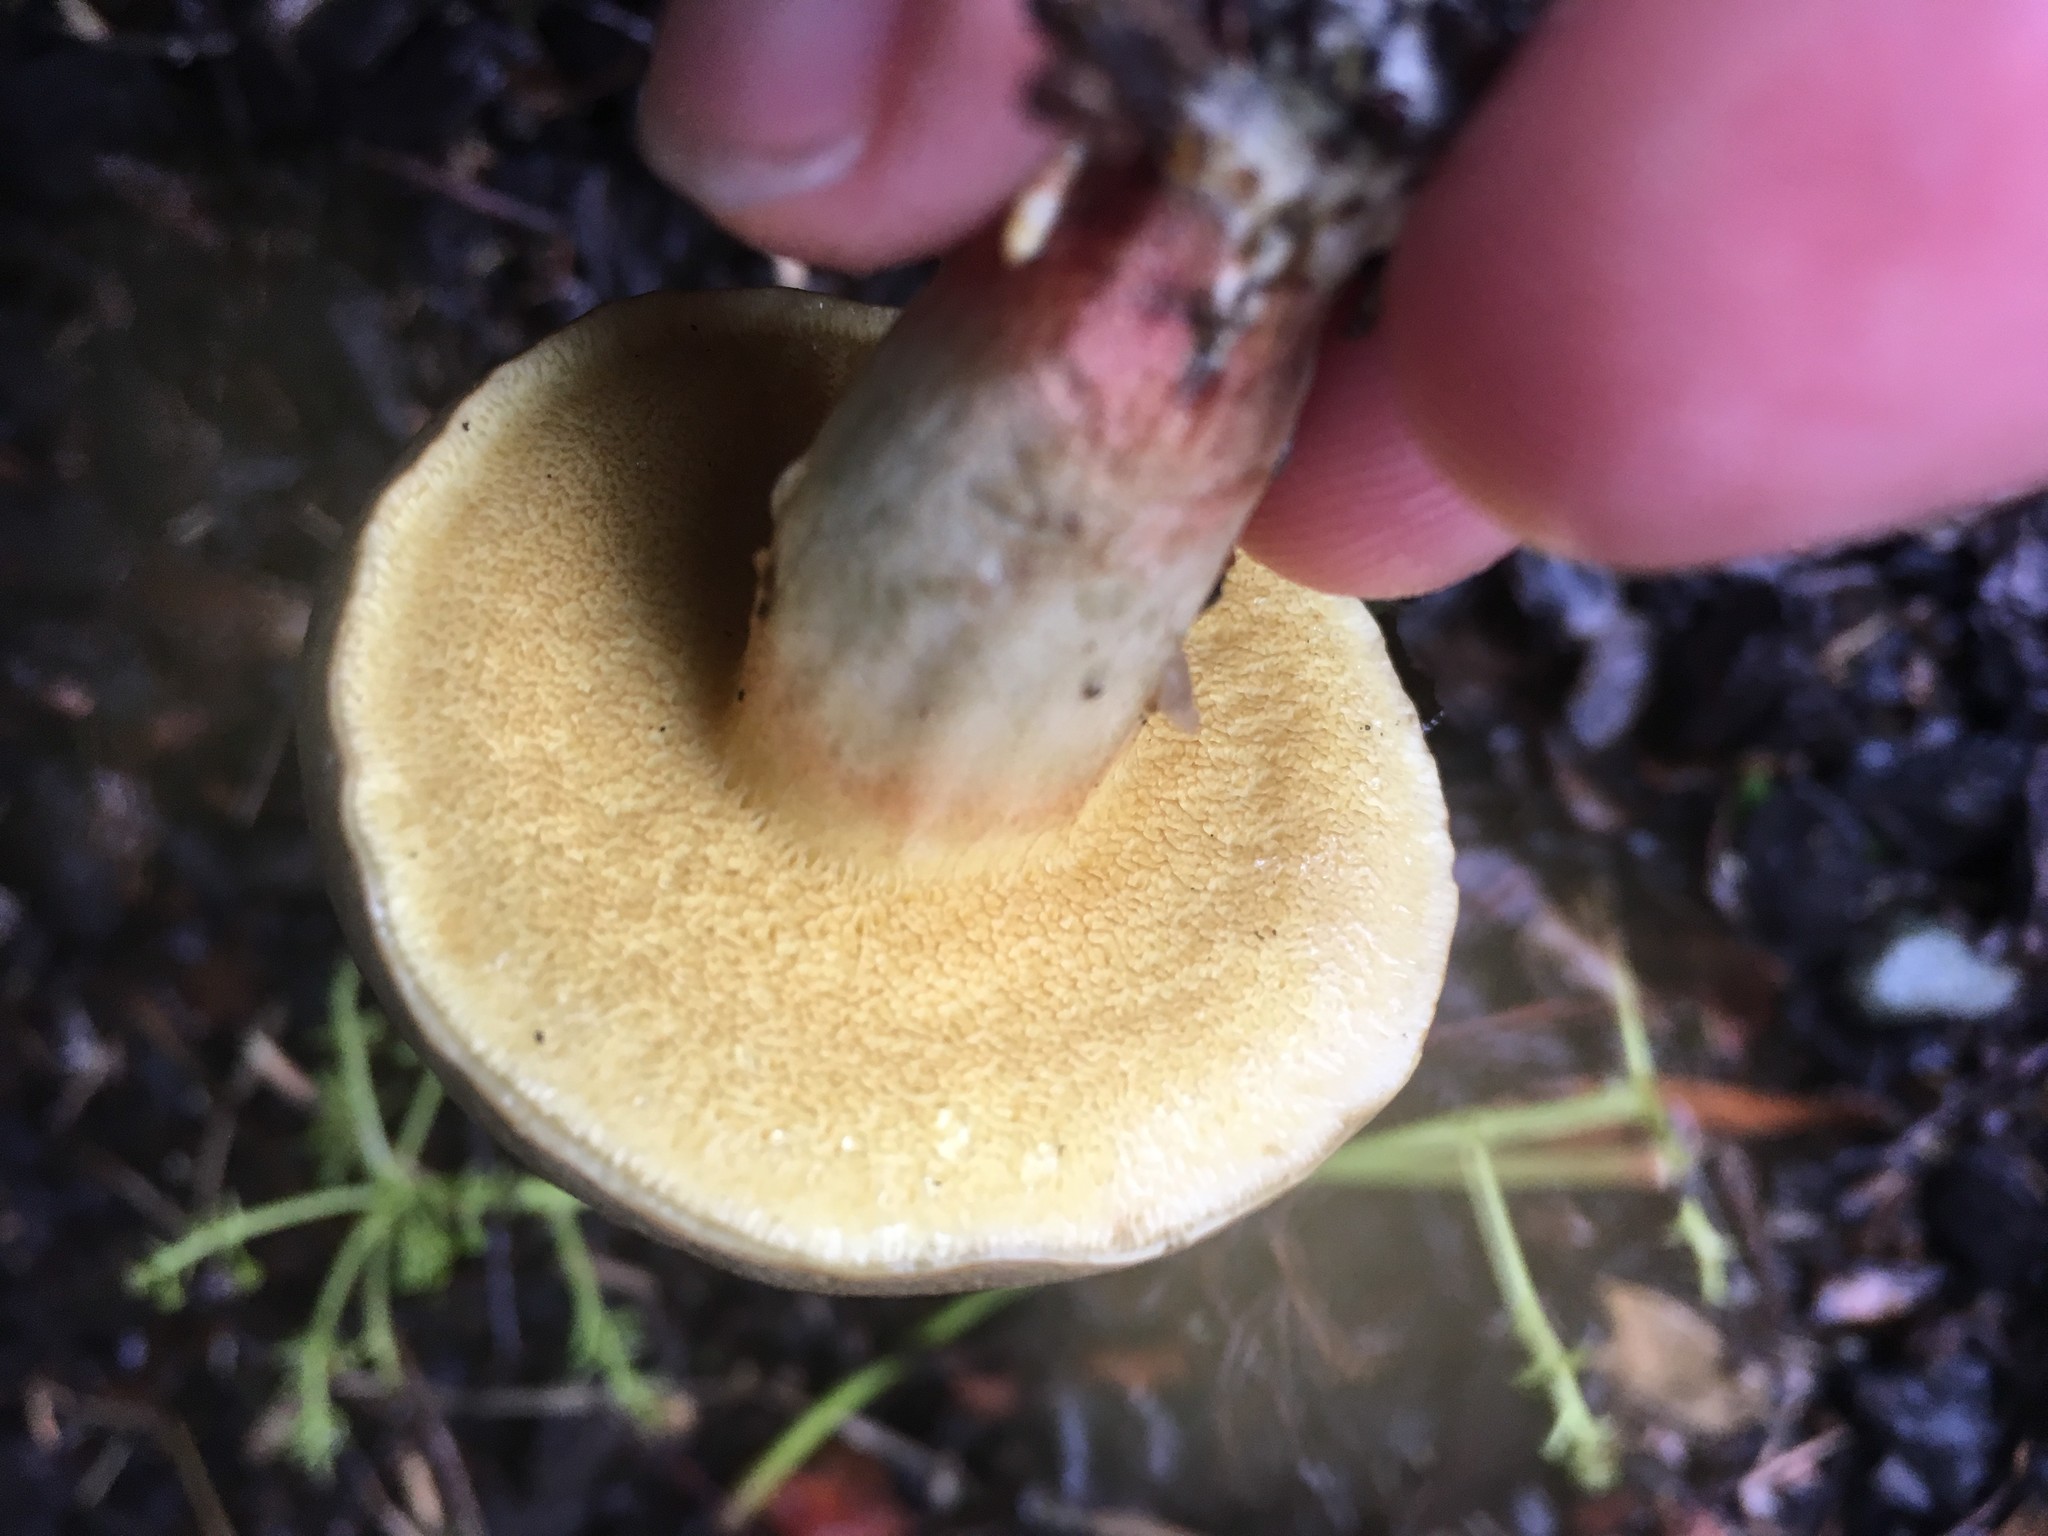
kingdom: Fungi
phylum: Basidiomycota
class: Agaricomycetes
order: Boletales
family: Boletaceae
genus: Xerocomellus
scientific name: Xerocomellus cisalpinus
